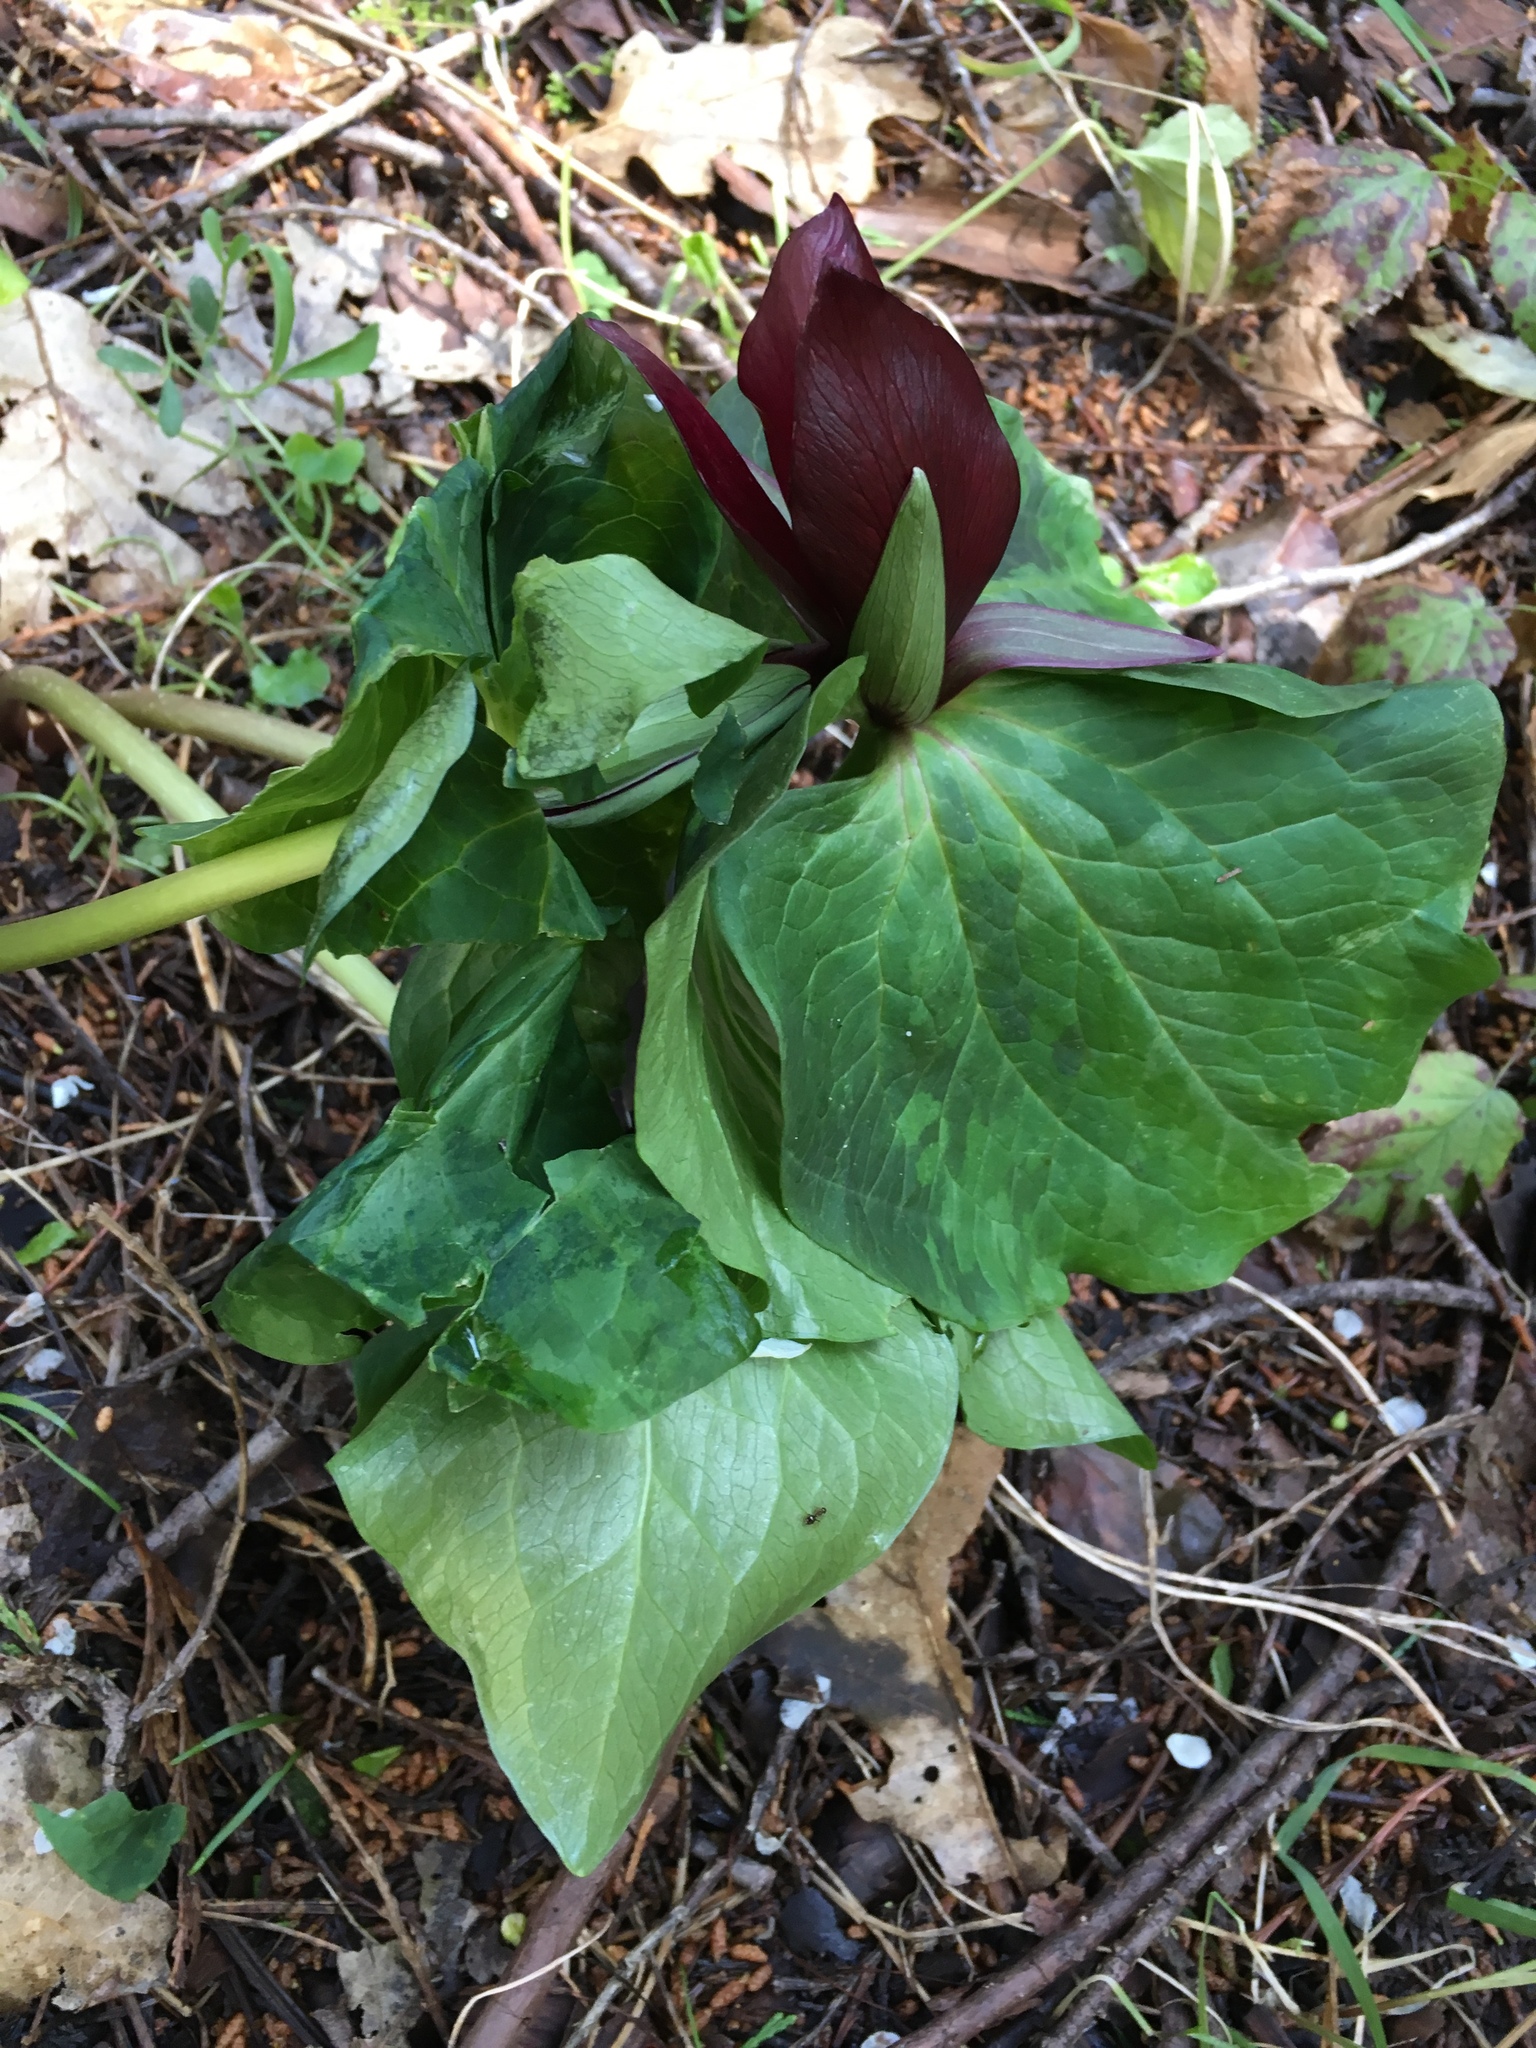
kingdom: Plantae
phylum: Tracheophyta
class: Liliopsida
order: Liliales
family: Melanthiaceae
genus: Trillium
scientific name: Trillium chloropetalum
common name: Giant trillium
